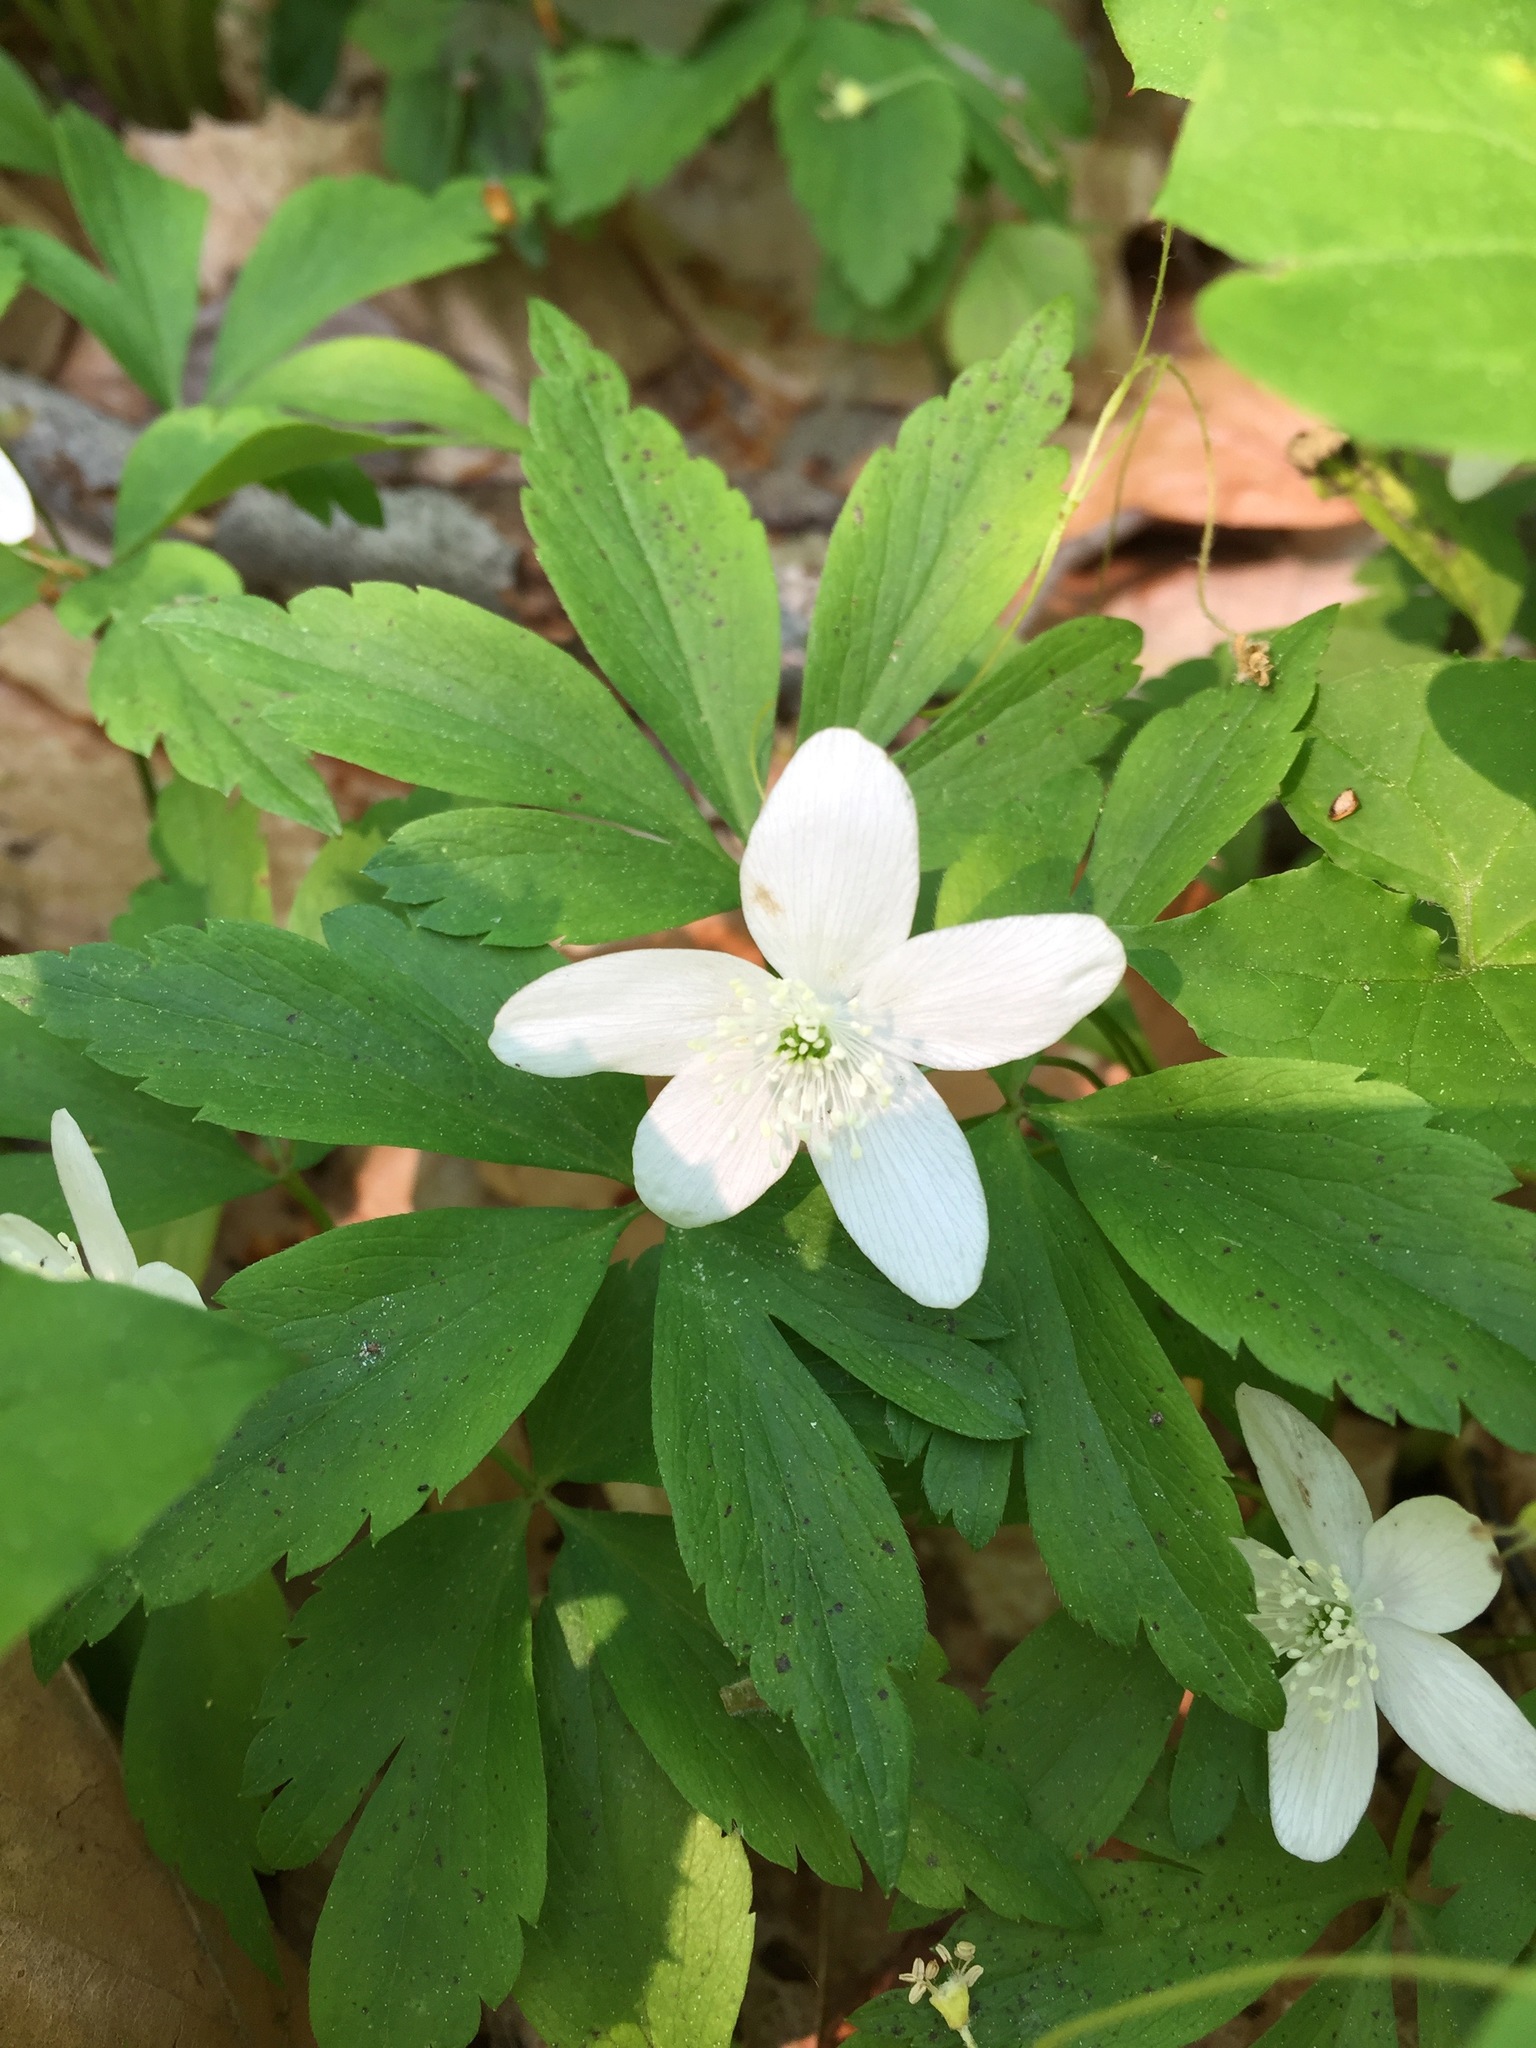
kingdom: Plantae
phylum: Tracheophyta
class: Magnoliopsida
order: Ranunculales
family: Ranunculaceae
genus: Anemone
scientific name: Anemone quinquefolia
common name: Wood anemone
